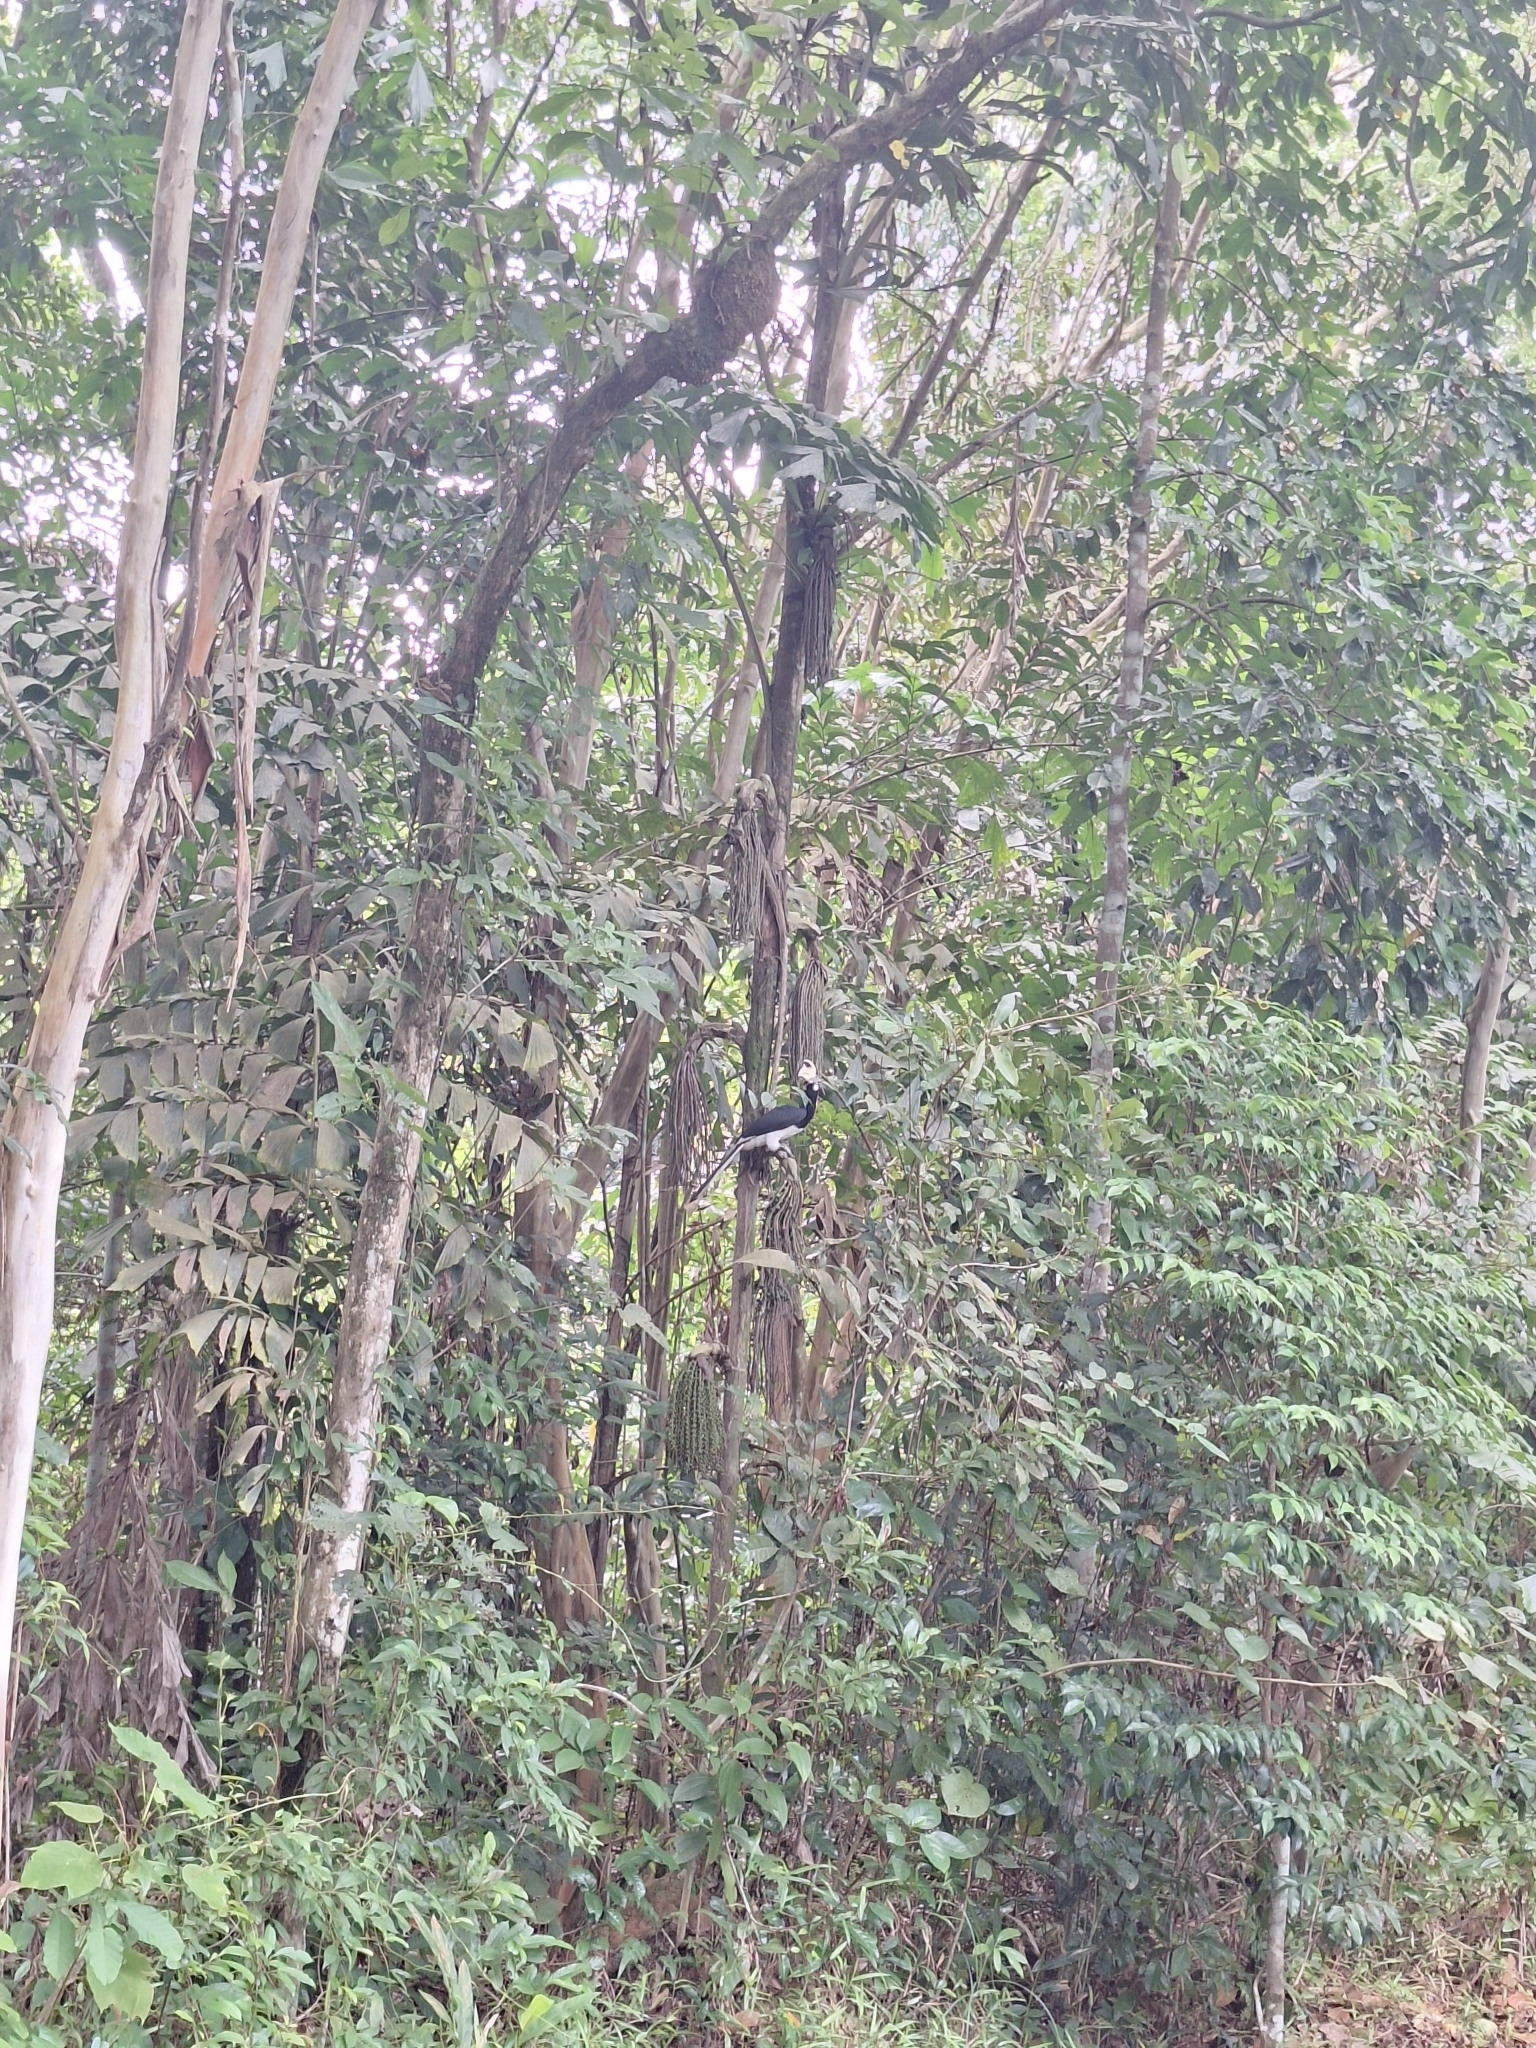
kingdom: Animalia
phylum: Chordata
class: Aves
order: Bucerotiformes
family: Bucerotidae
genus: Anthracoceros
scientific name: Anthracoceros albirostris
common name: Oriental pied-hornbill
